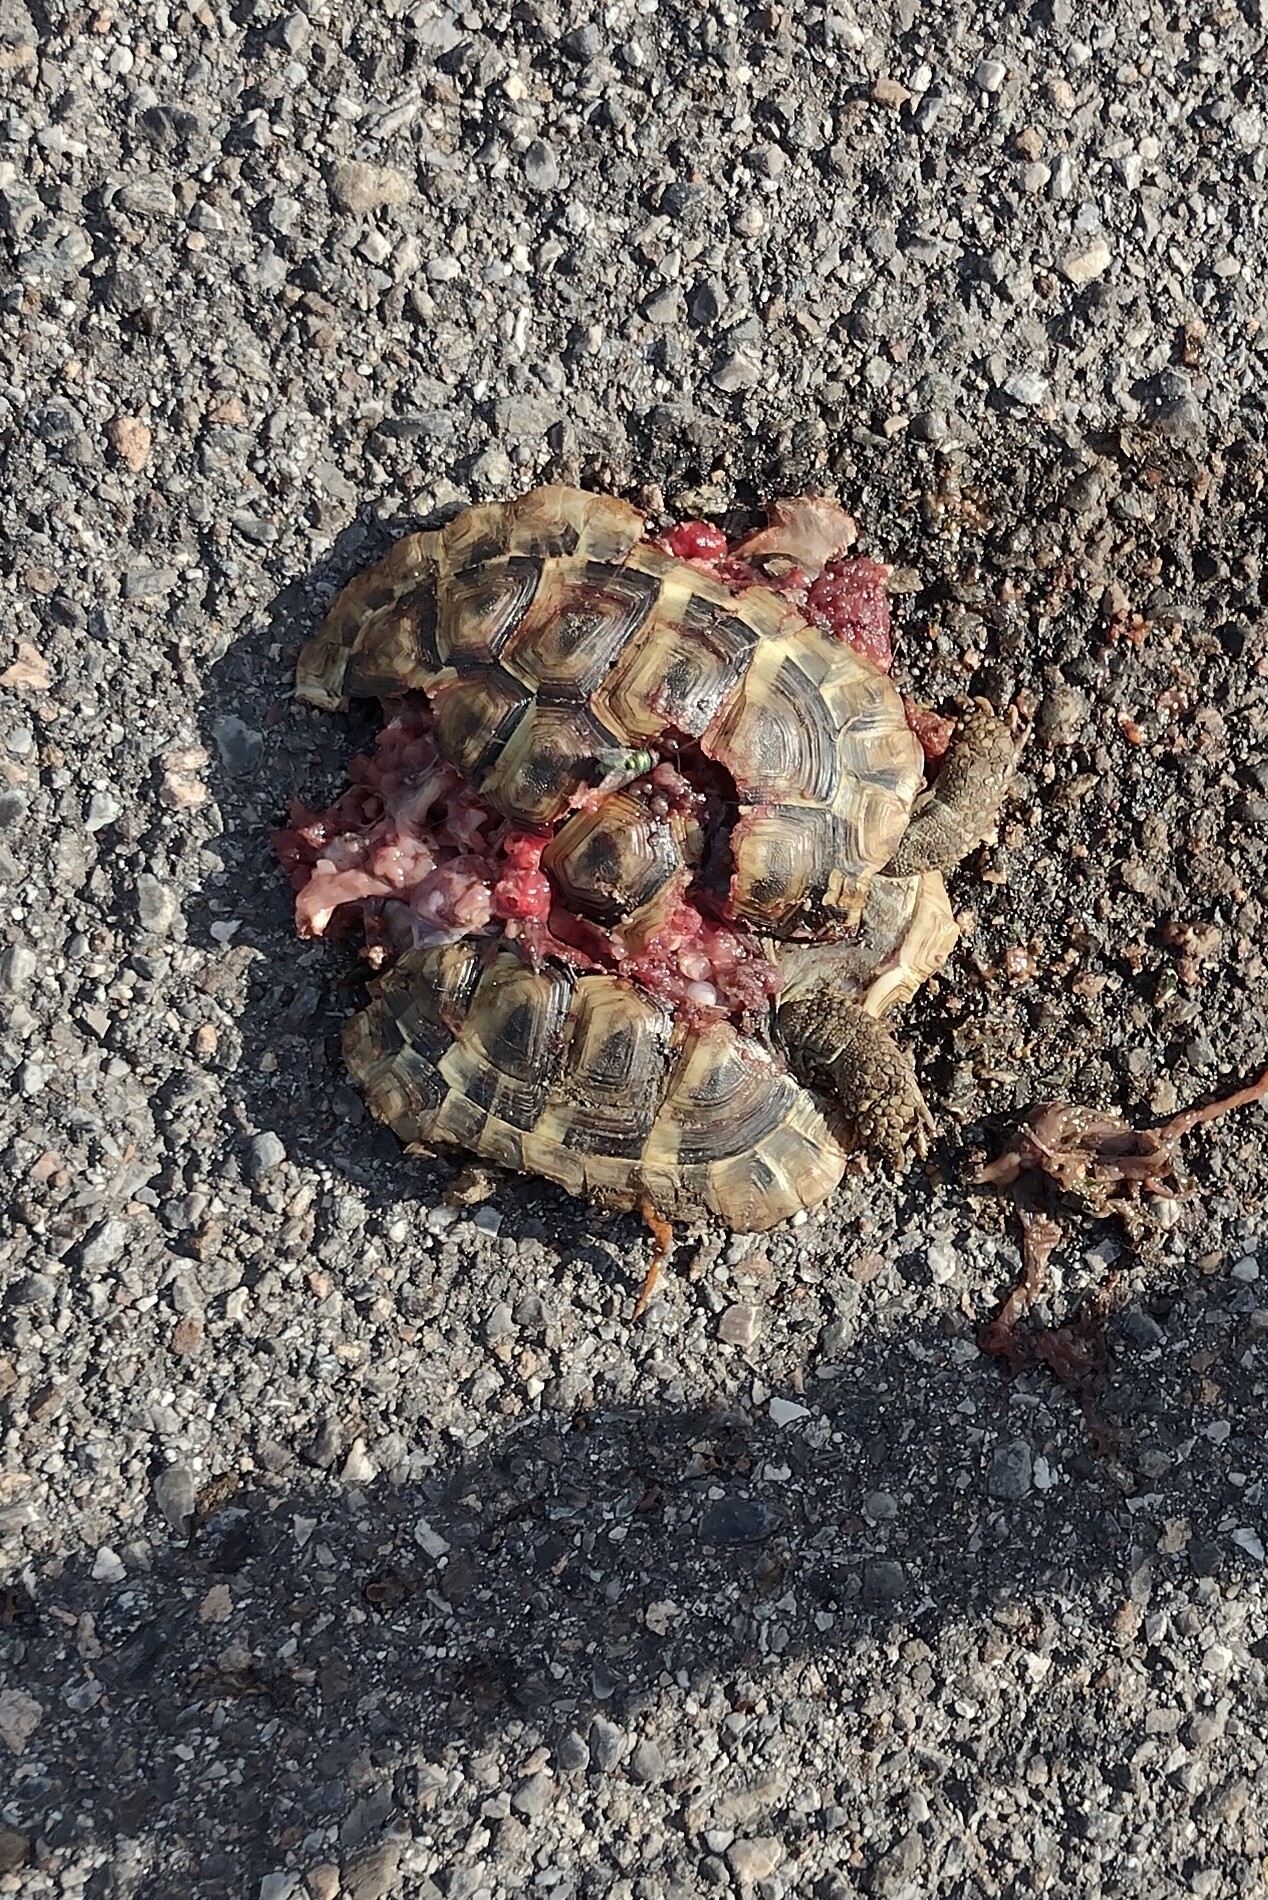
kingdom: Animalia
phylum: Chordata
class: Testudines
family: Testudinidae
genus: Testudo
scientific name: Testudo hermanni
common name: Hermann's tortoise
